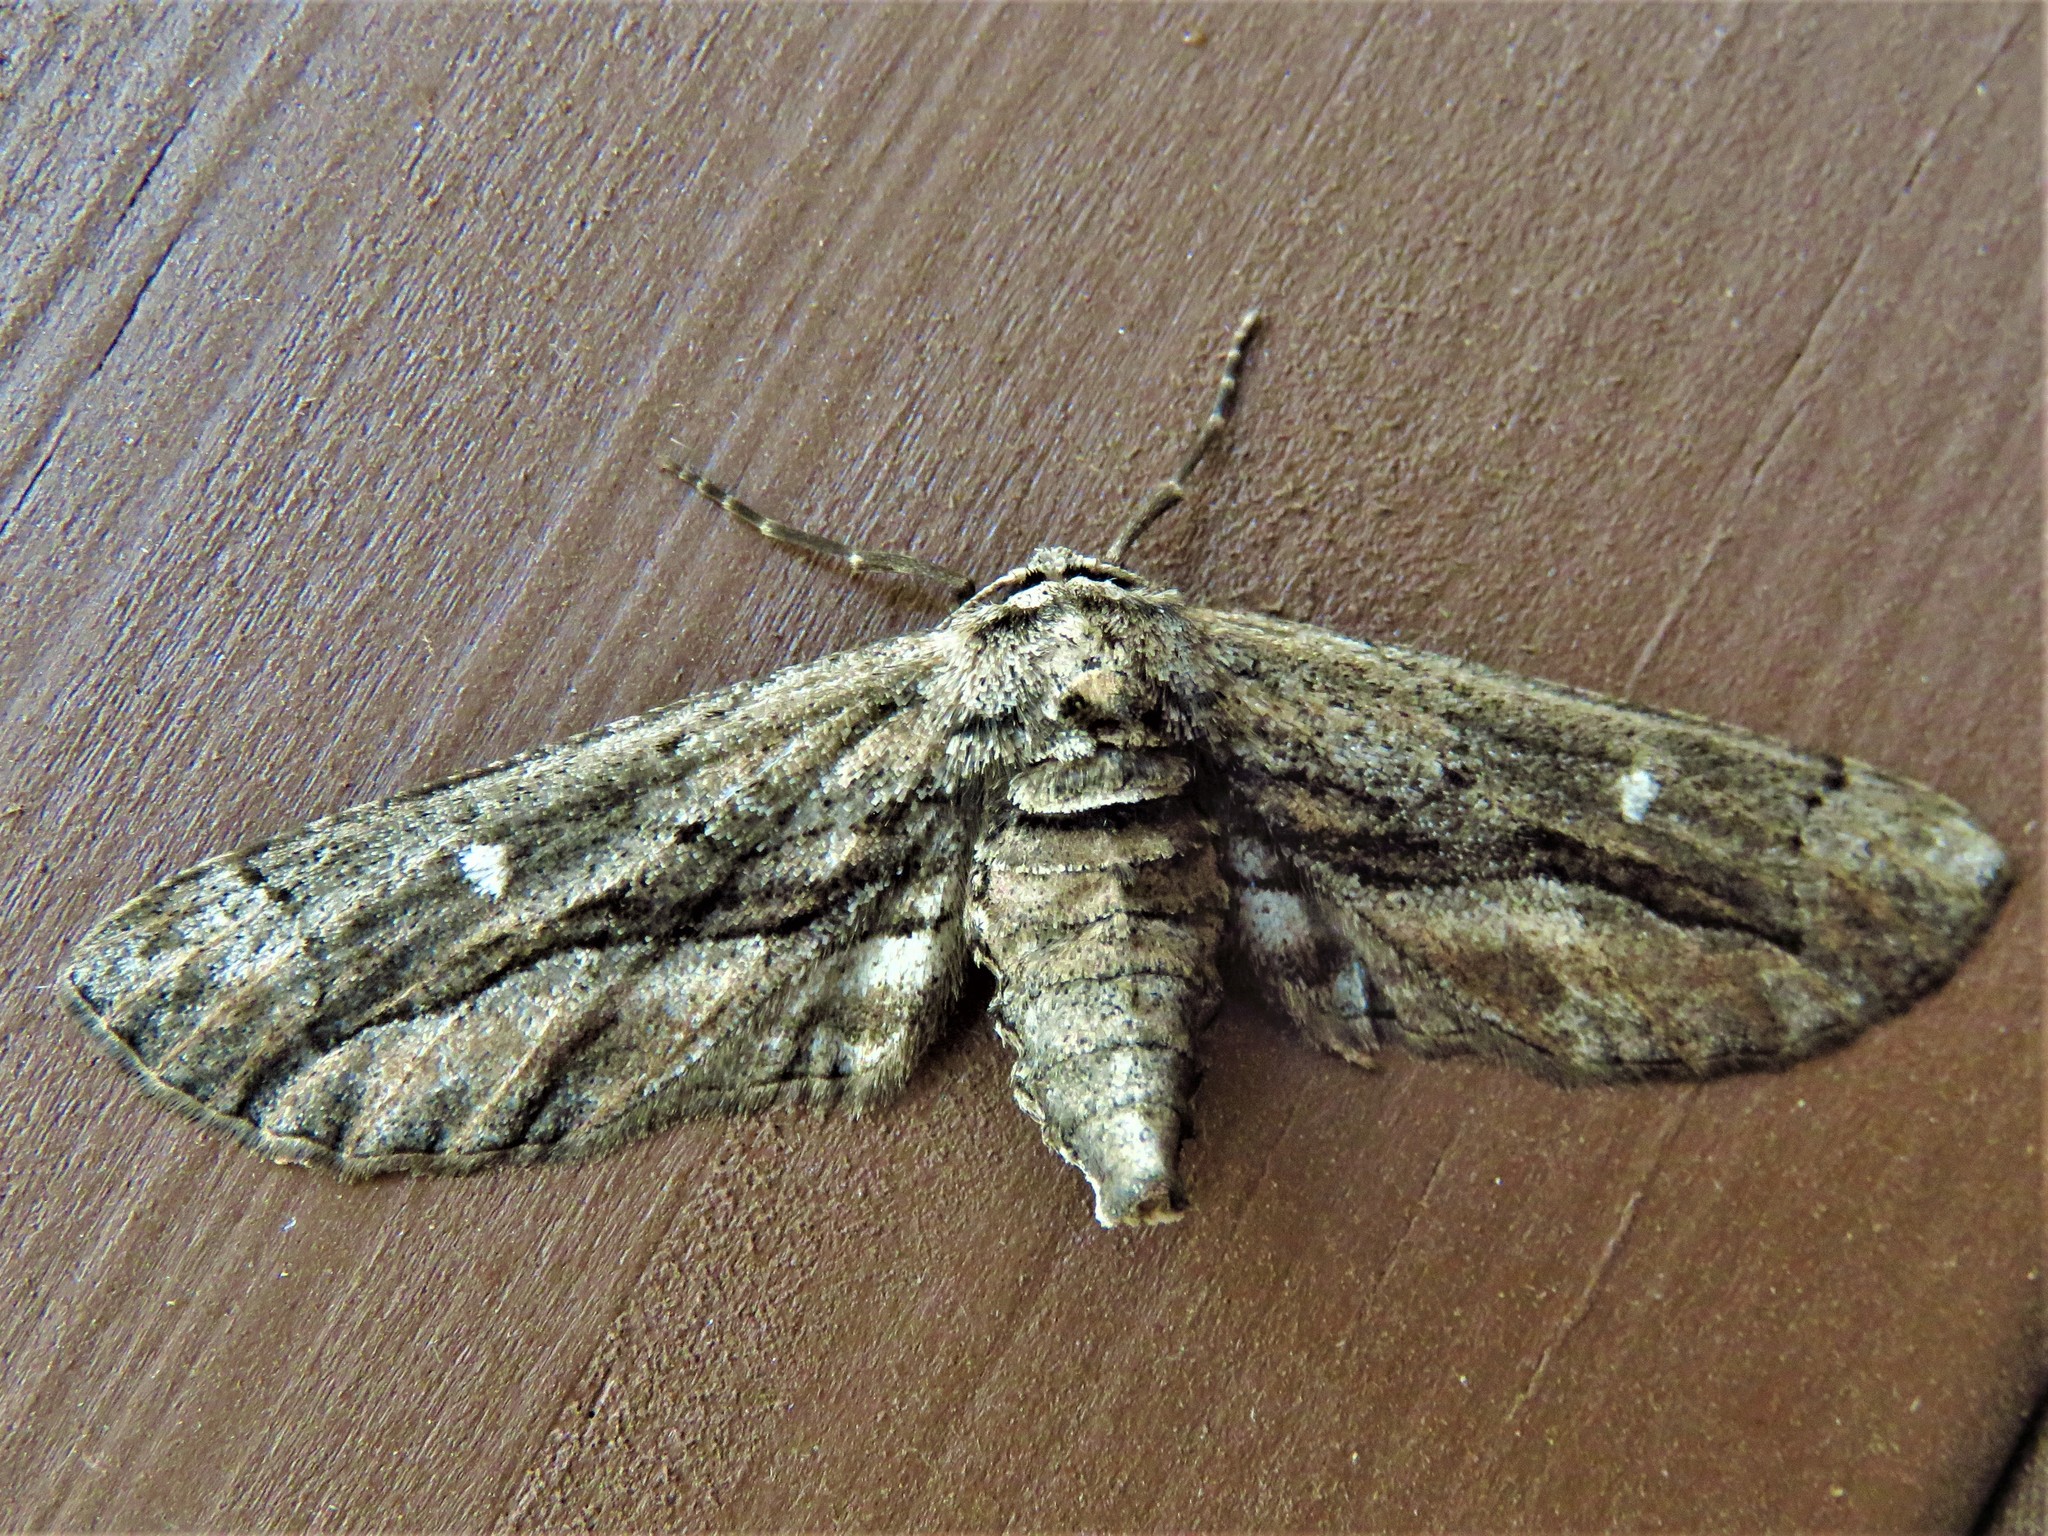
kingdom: Animalia
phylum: Arthropoda
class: Insecta
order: Lepidoptera
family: Geometridae
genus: Holochroa
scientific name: Holochroa dissociarius
